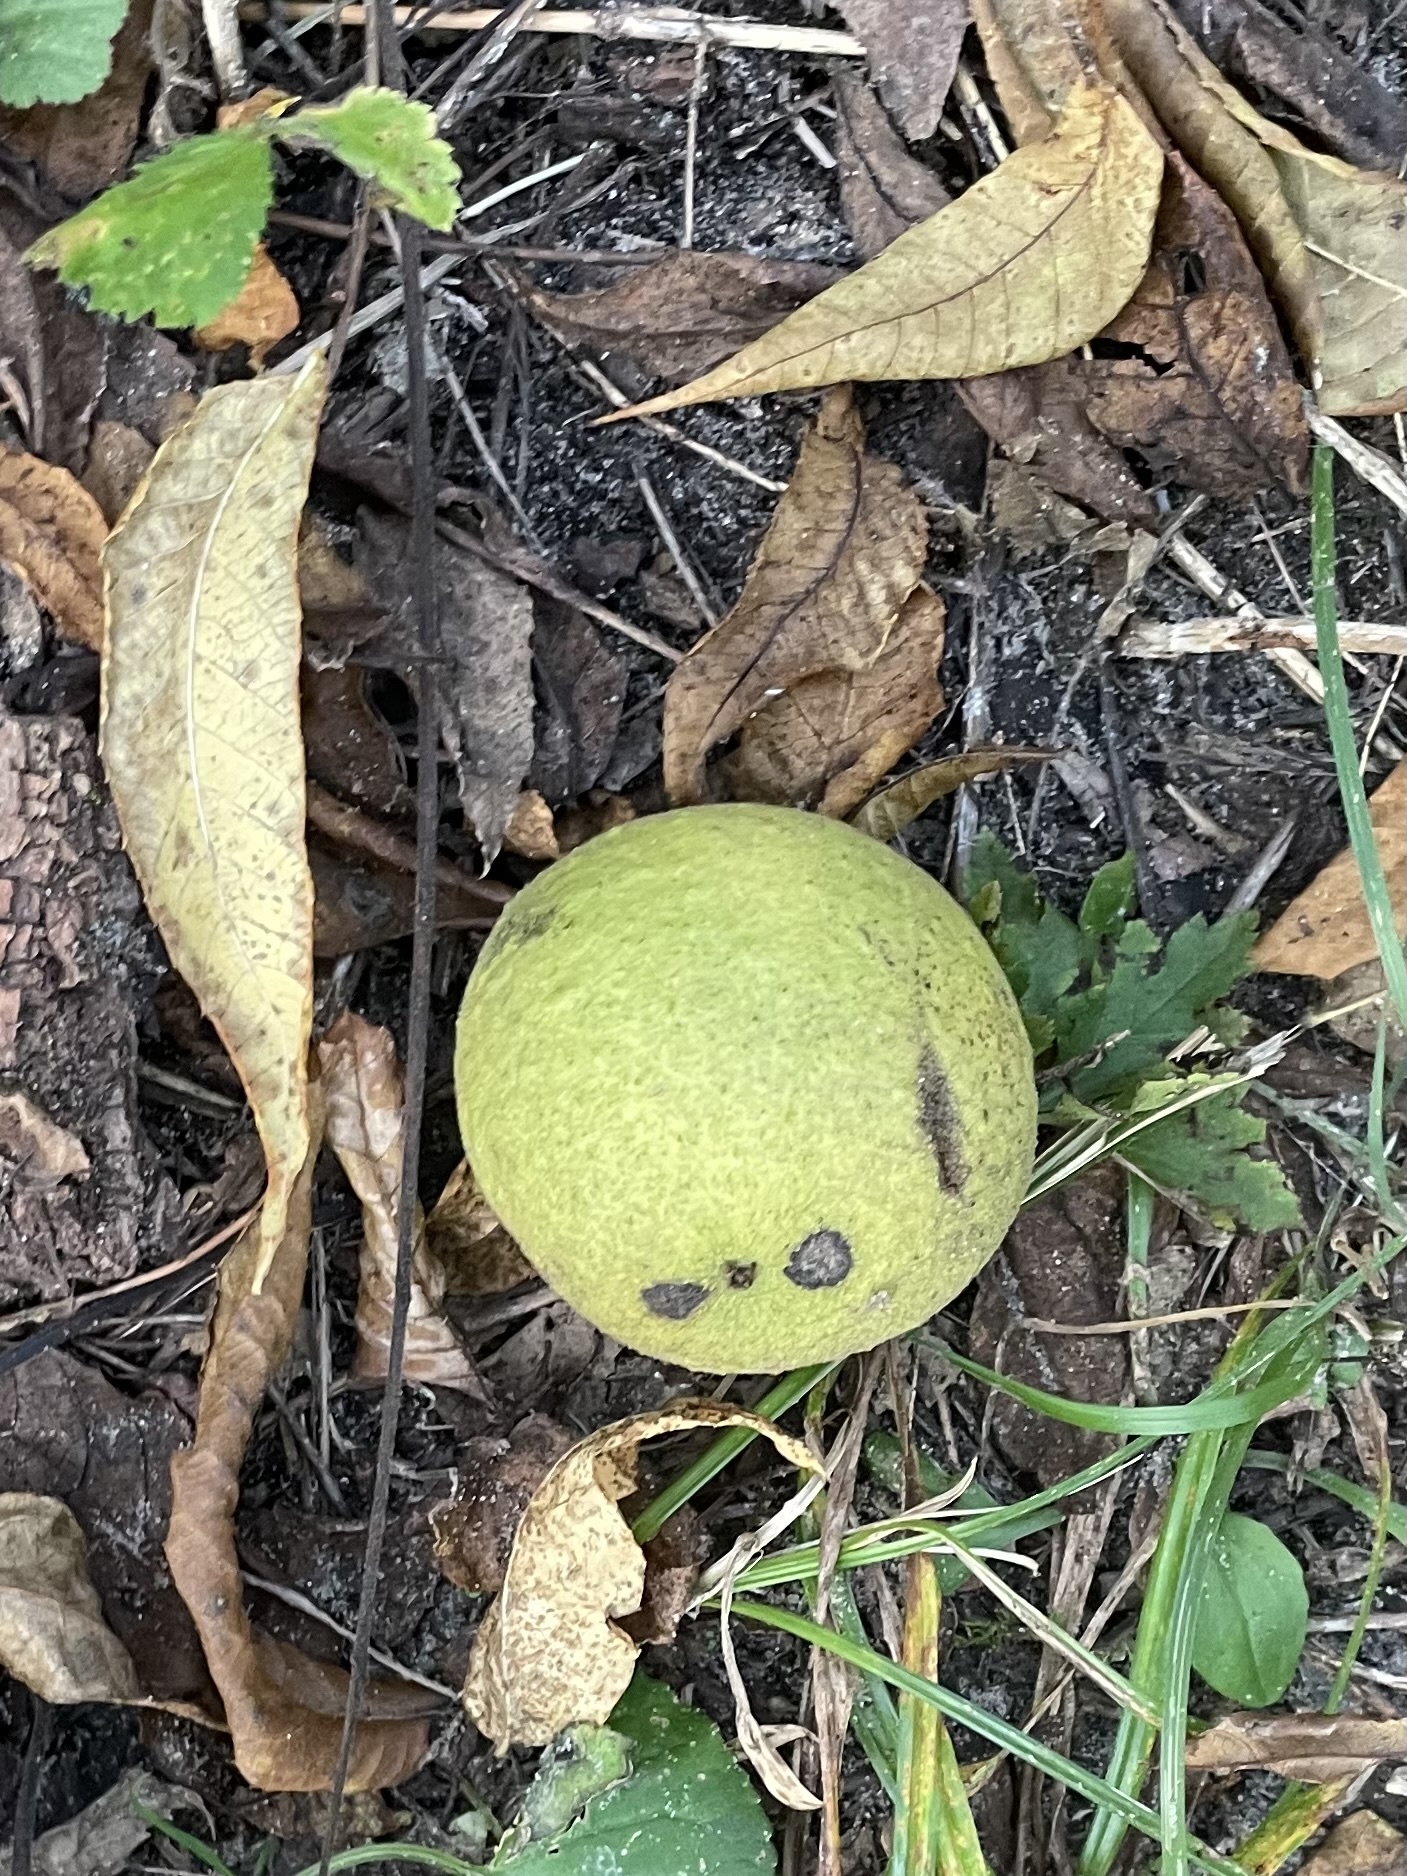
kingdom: Plantae
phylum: Tracheophyta
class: Magnoliopsida
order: Fagales
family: Juglandaceae
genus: Juglans
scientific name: Juglans nigra
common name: Black walnut
